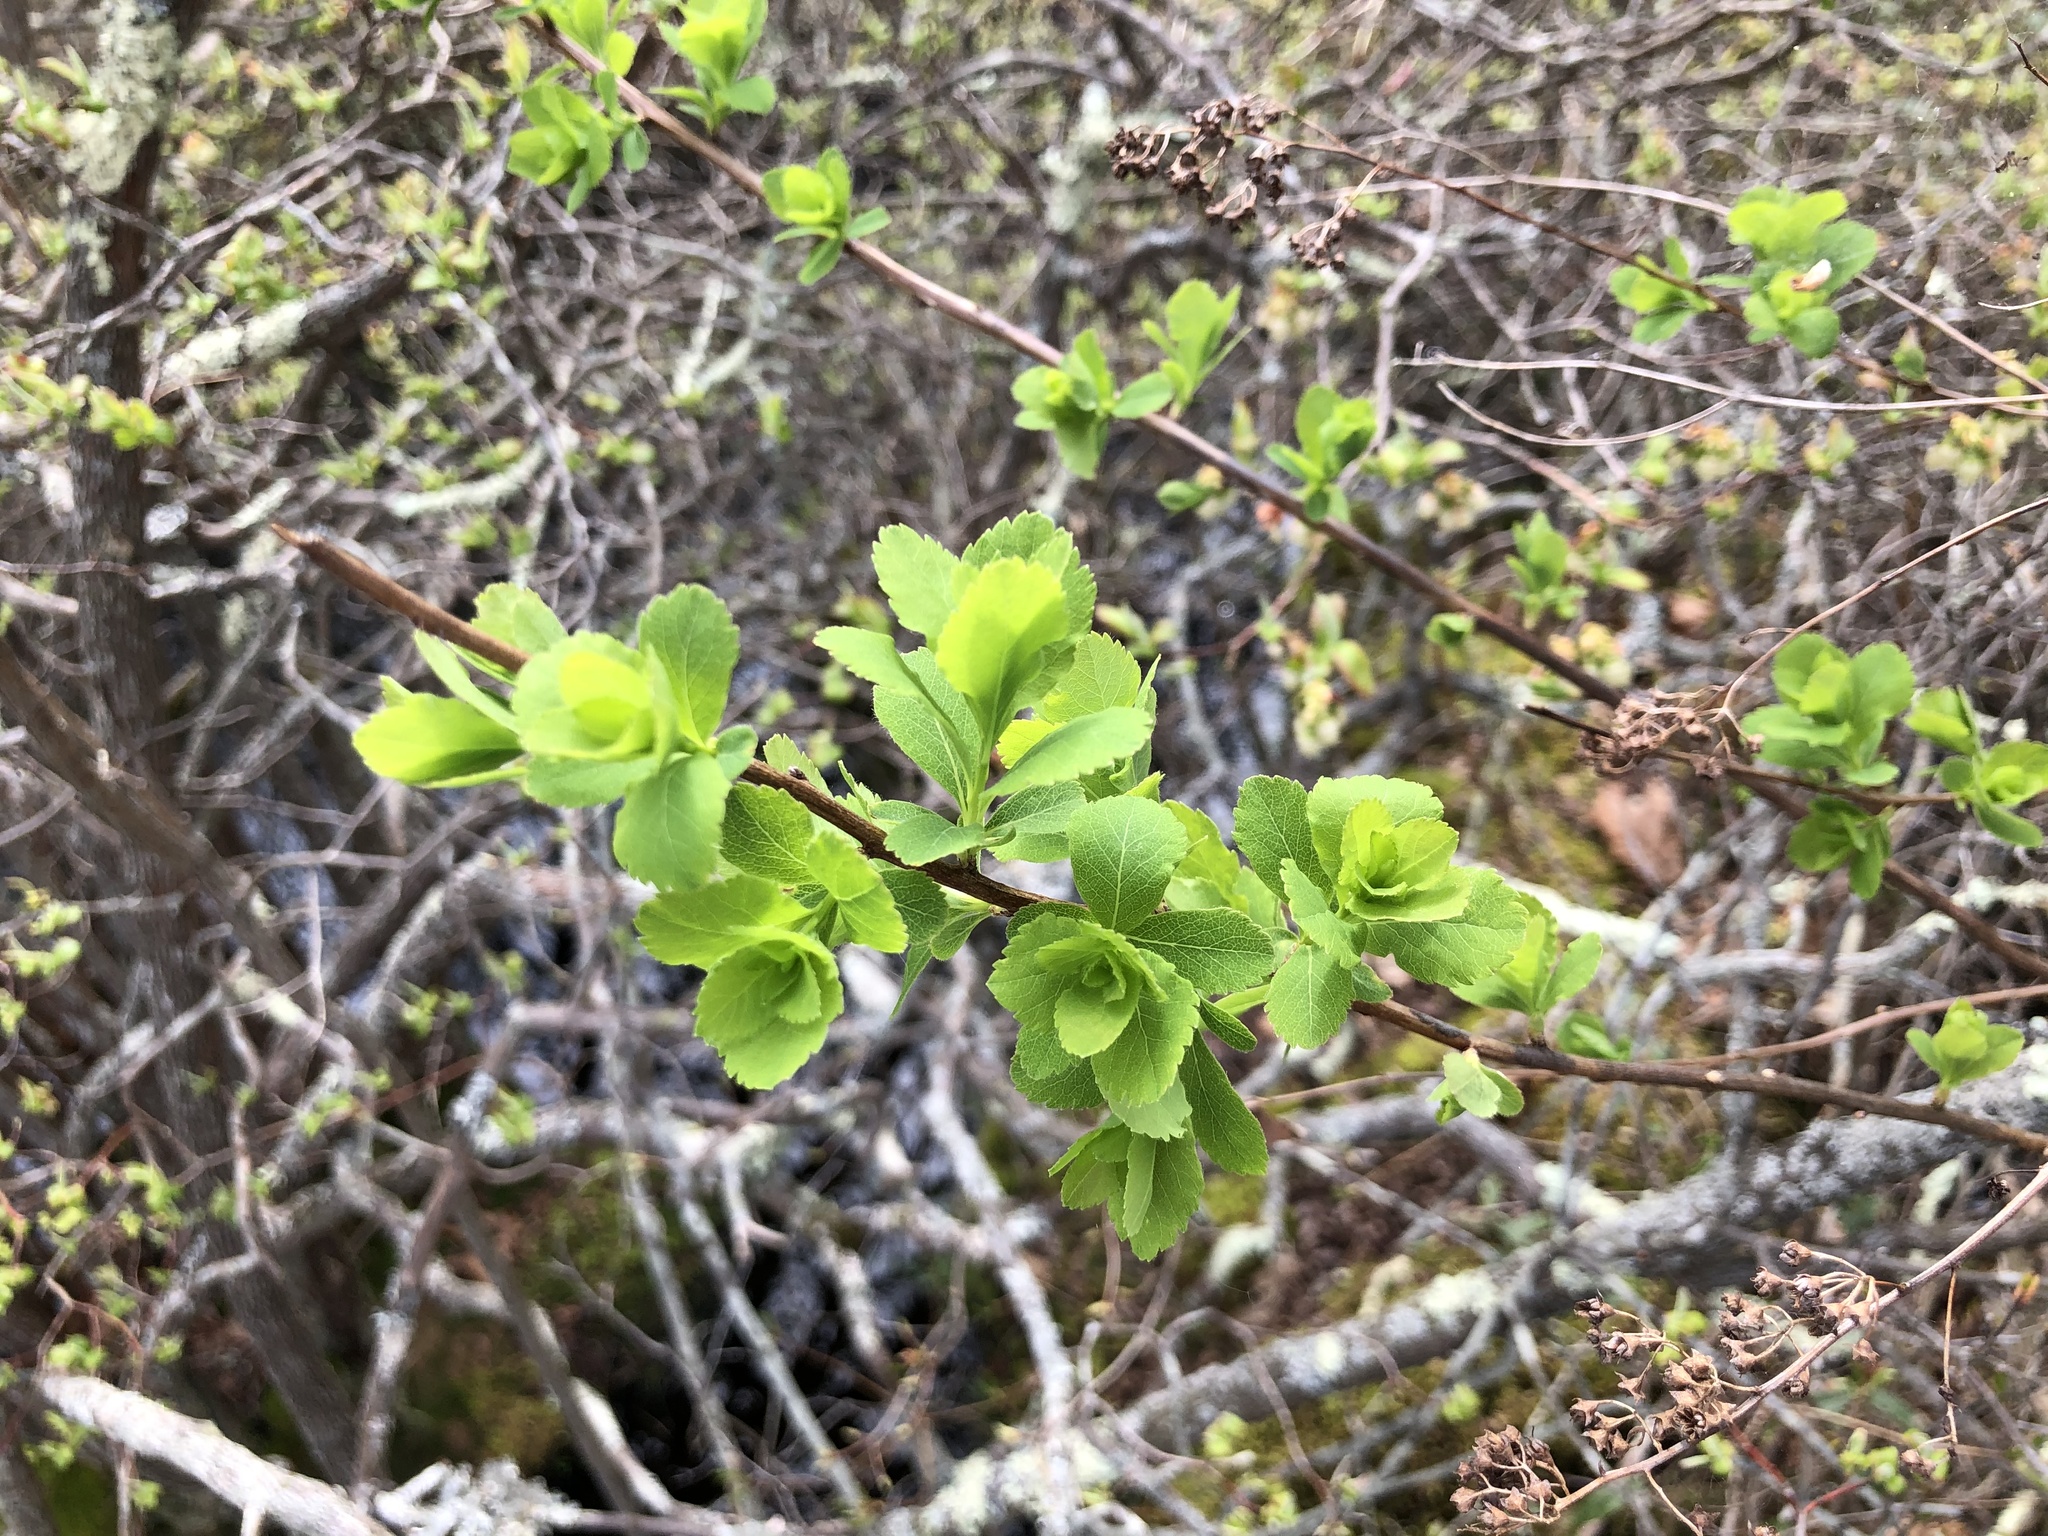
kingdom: Plantae
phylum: Tracheophyta
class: Magnoliopsida
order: Rosales
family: Rosaceae
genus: Spiraea
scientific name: Spiraea alba
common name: Pale bridewort
